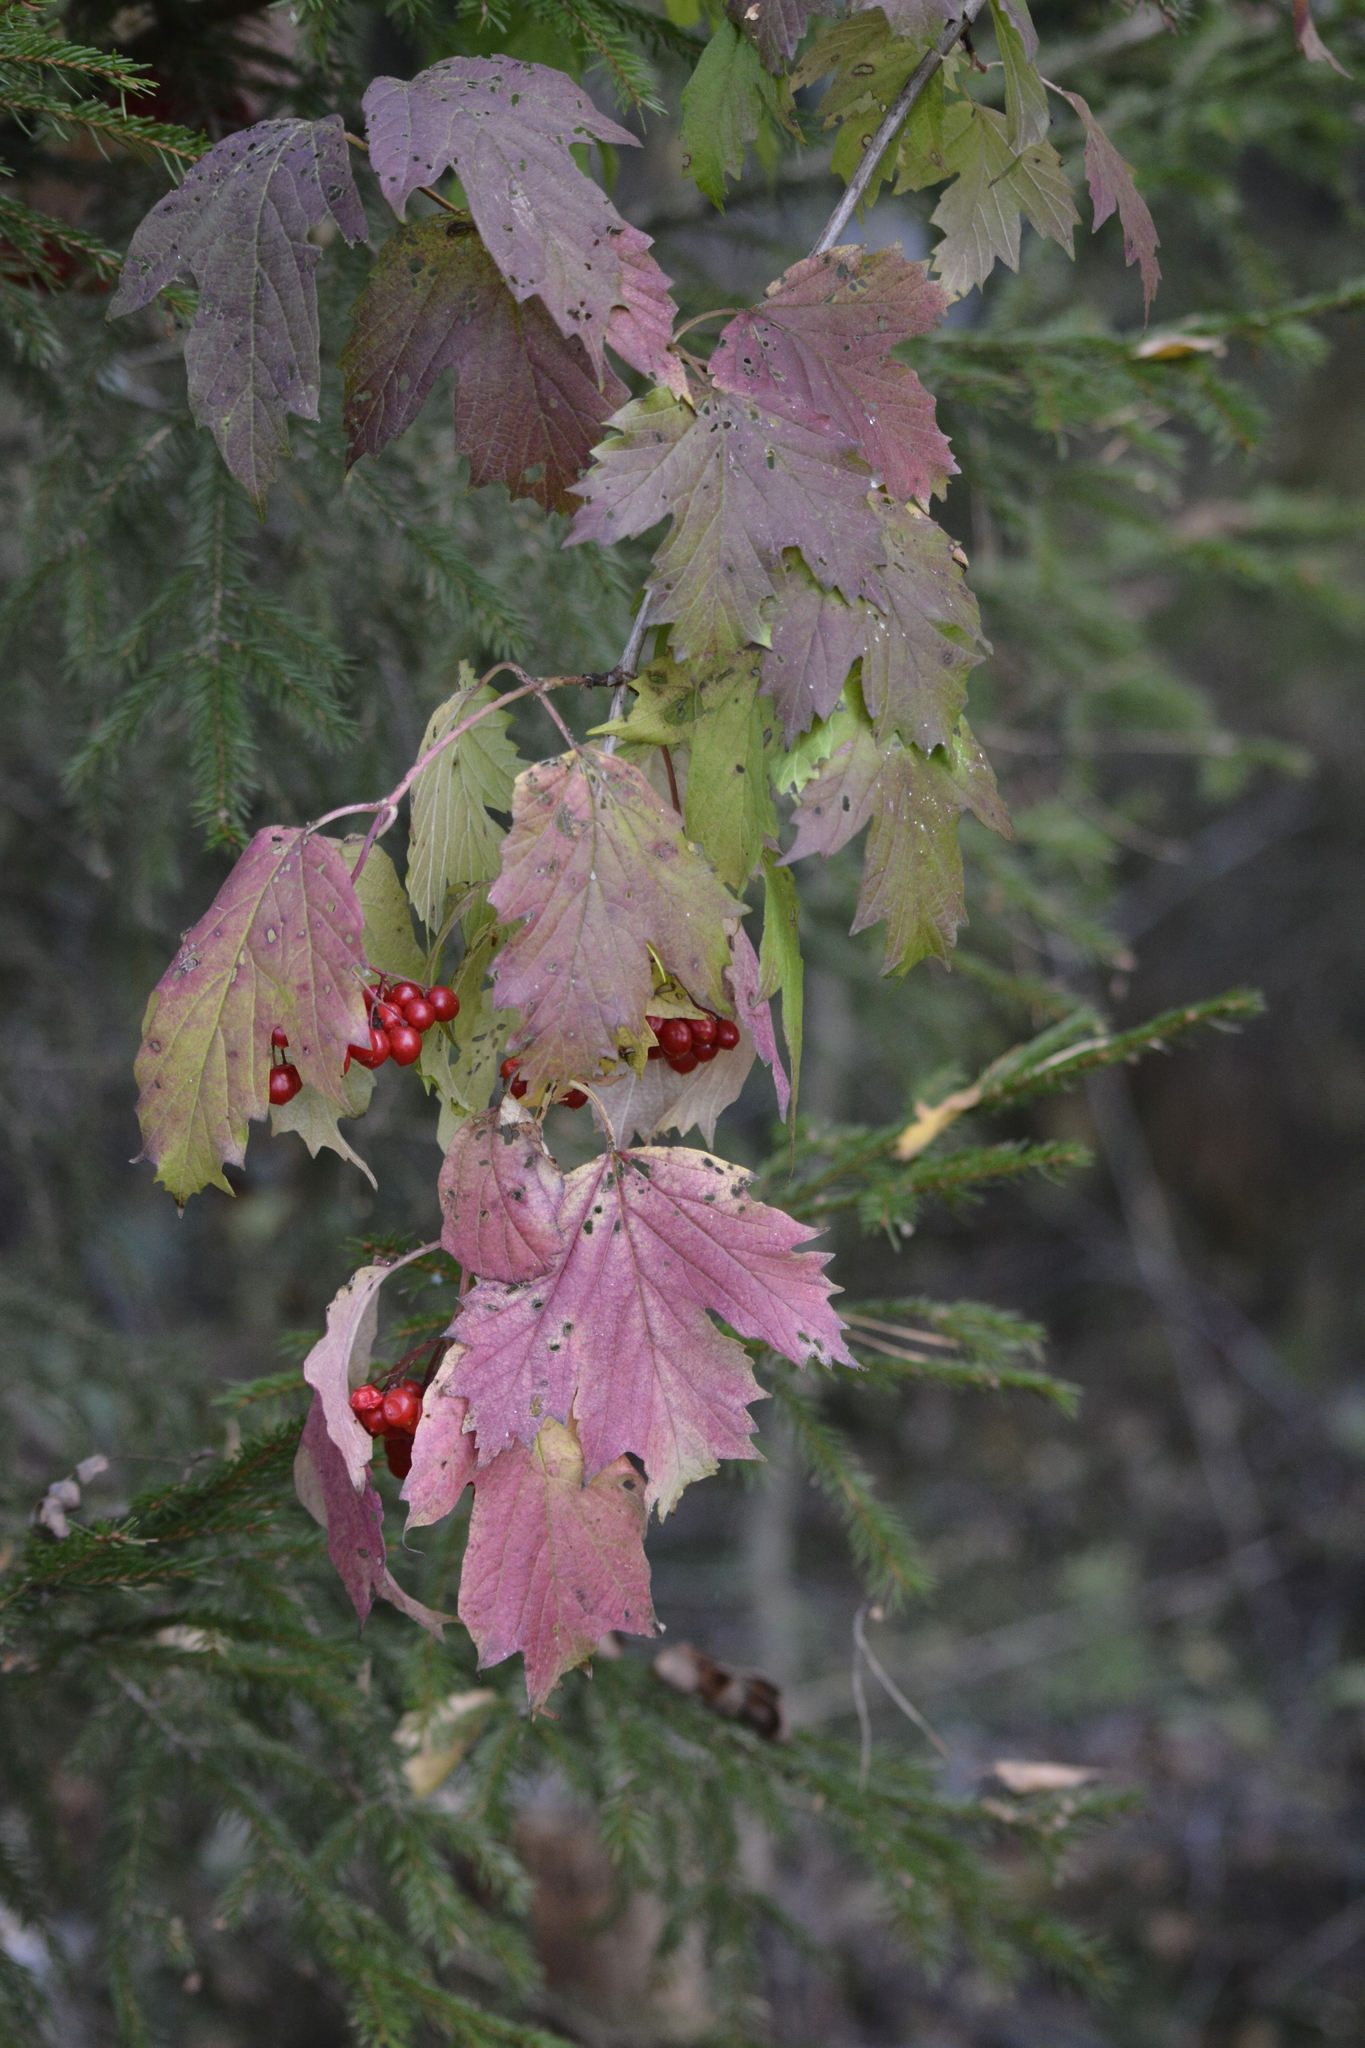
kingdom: Plantae
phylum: Tracheophyta
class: Magnoliopsida
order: Dipsacales
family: Viburnaceae
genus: Viburnum
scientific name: Viburnum opulus
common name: Guelder-rose
